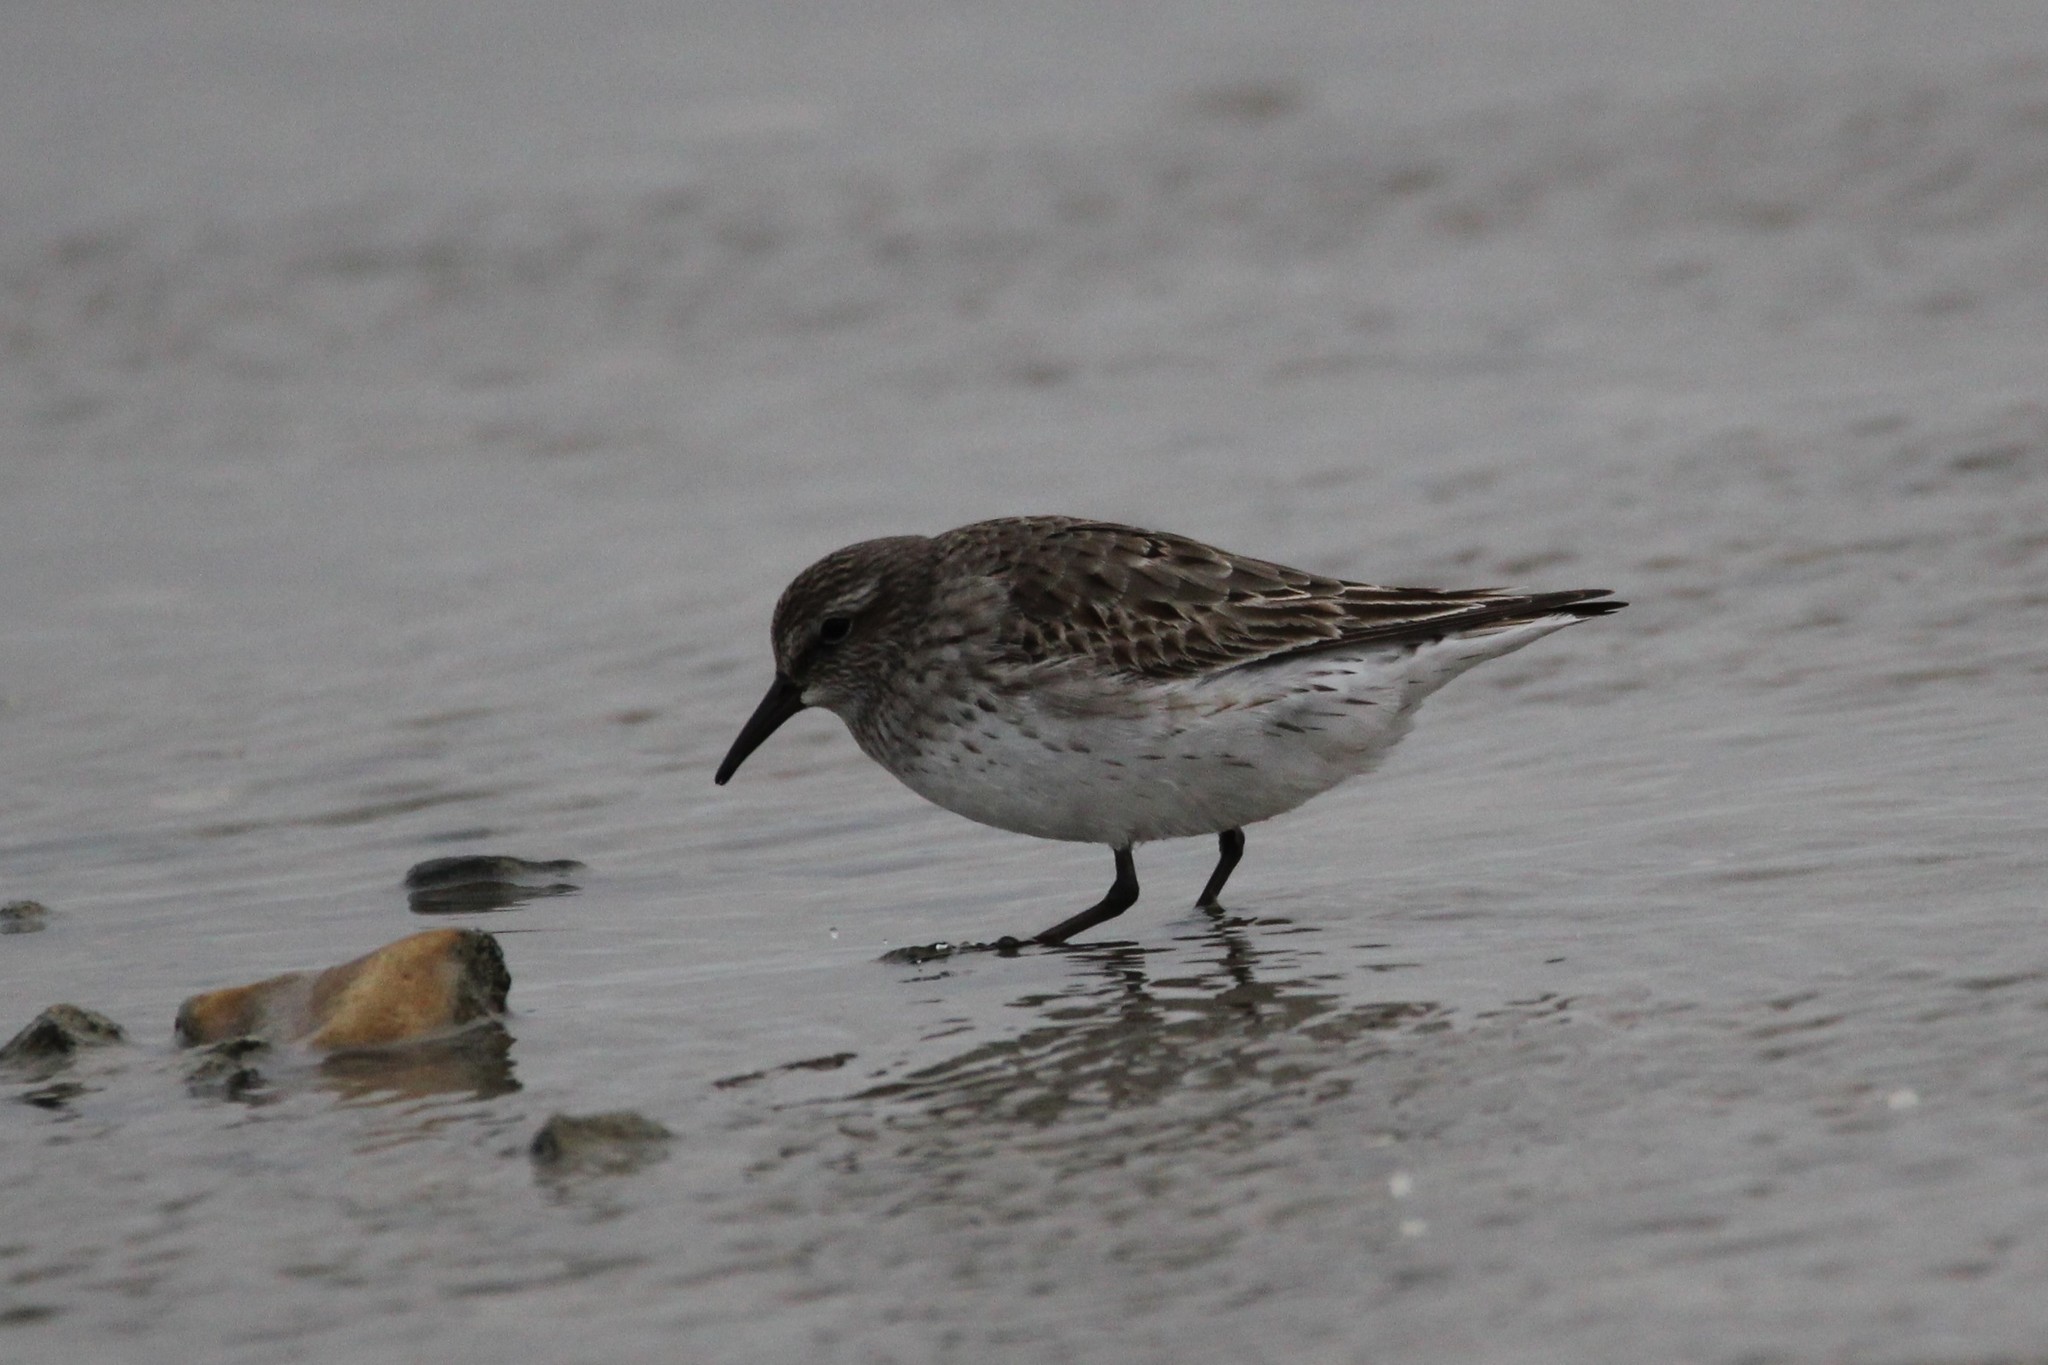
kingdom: Animalia
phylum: Chordata
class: Aves
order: Charadriiformes
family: Scolopacidae
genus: Calidris
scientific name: Calidris fuscicollis
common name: White-rumped sandpiper
